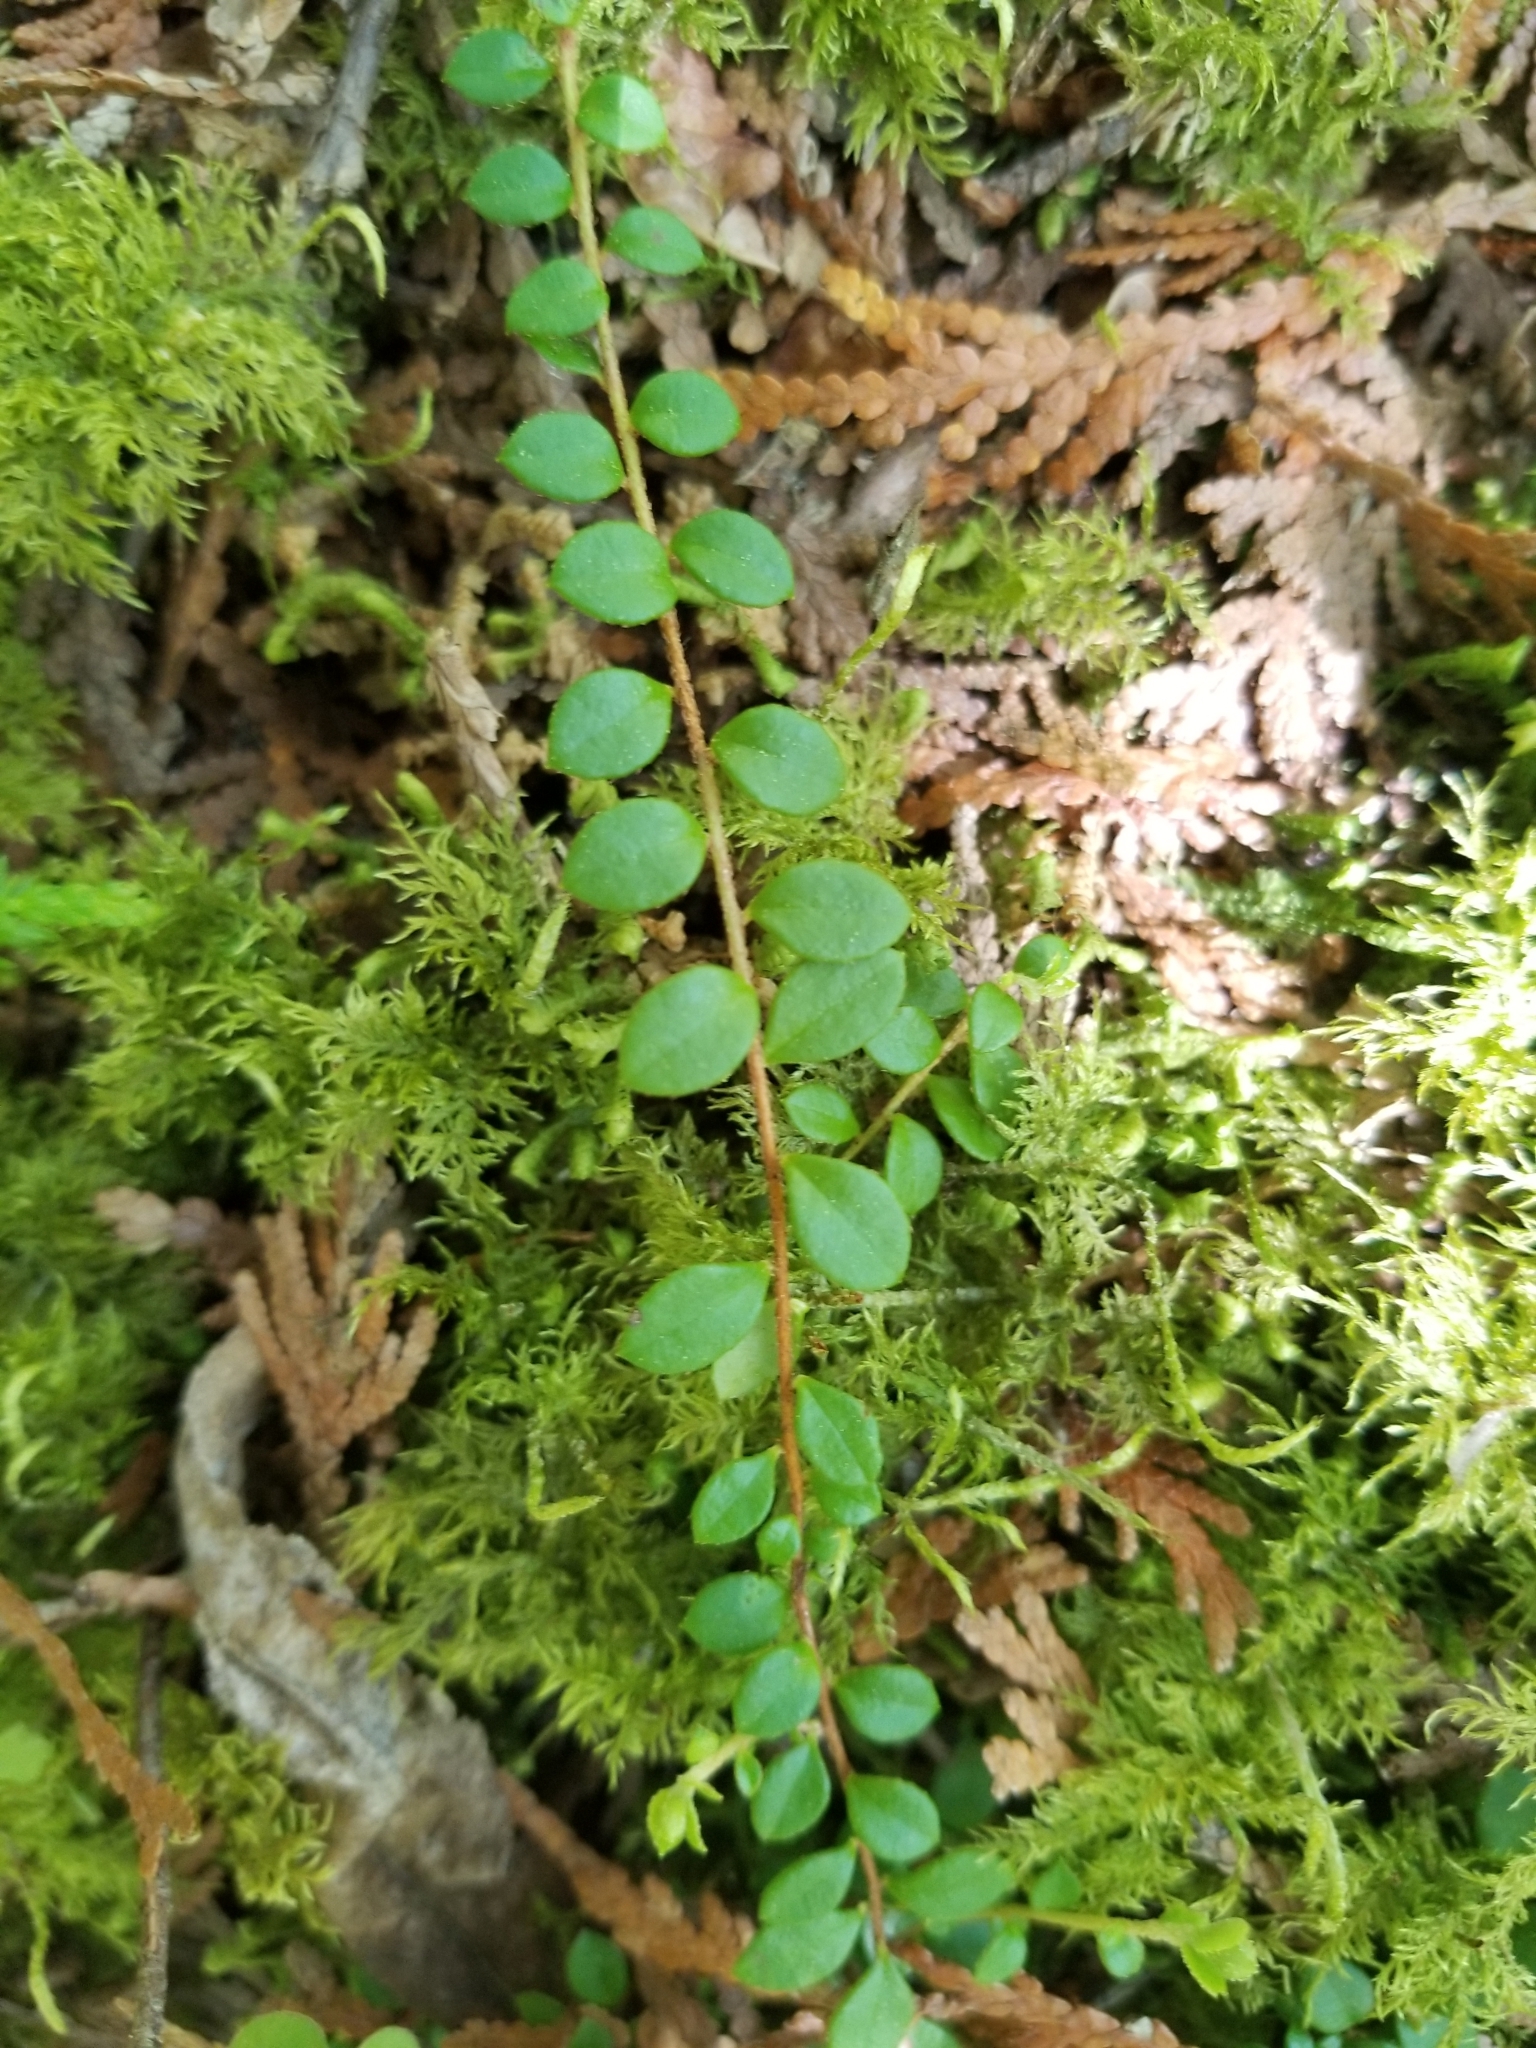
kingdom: Plantae
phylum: Tracheophyta
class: Magnoliopsida
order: Ericales
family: Ericaceae
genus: Gaultheria
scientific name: Gaultheria hispidula
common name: Cancer wintergreen
